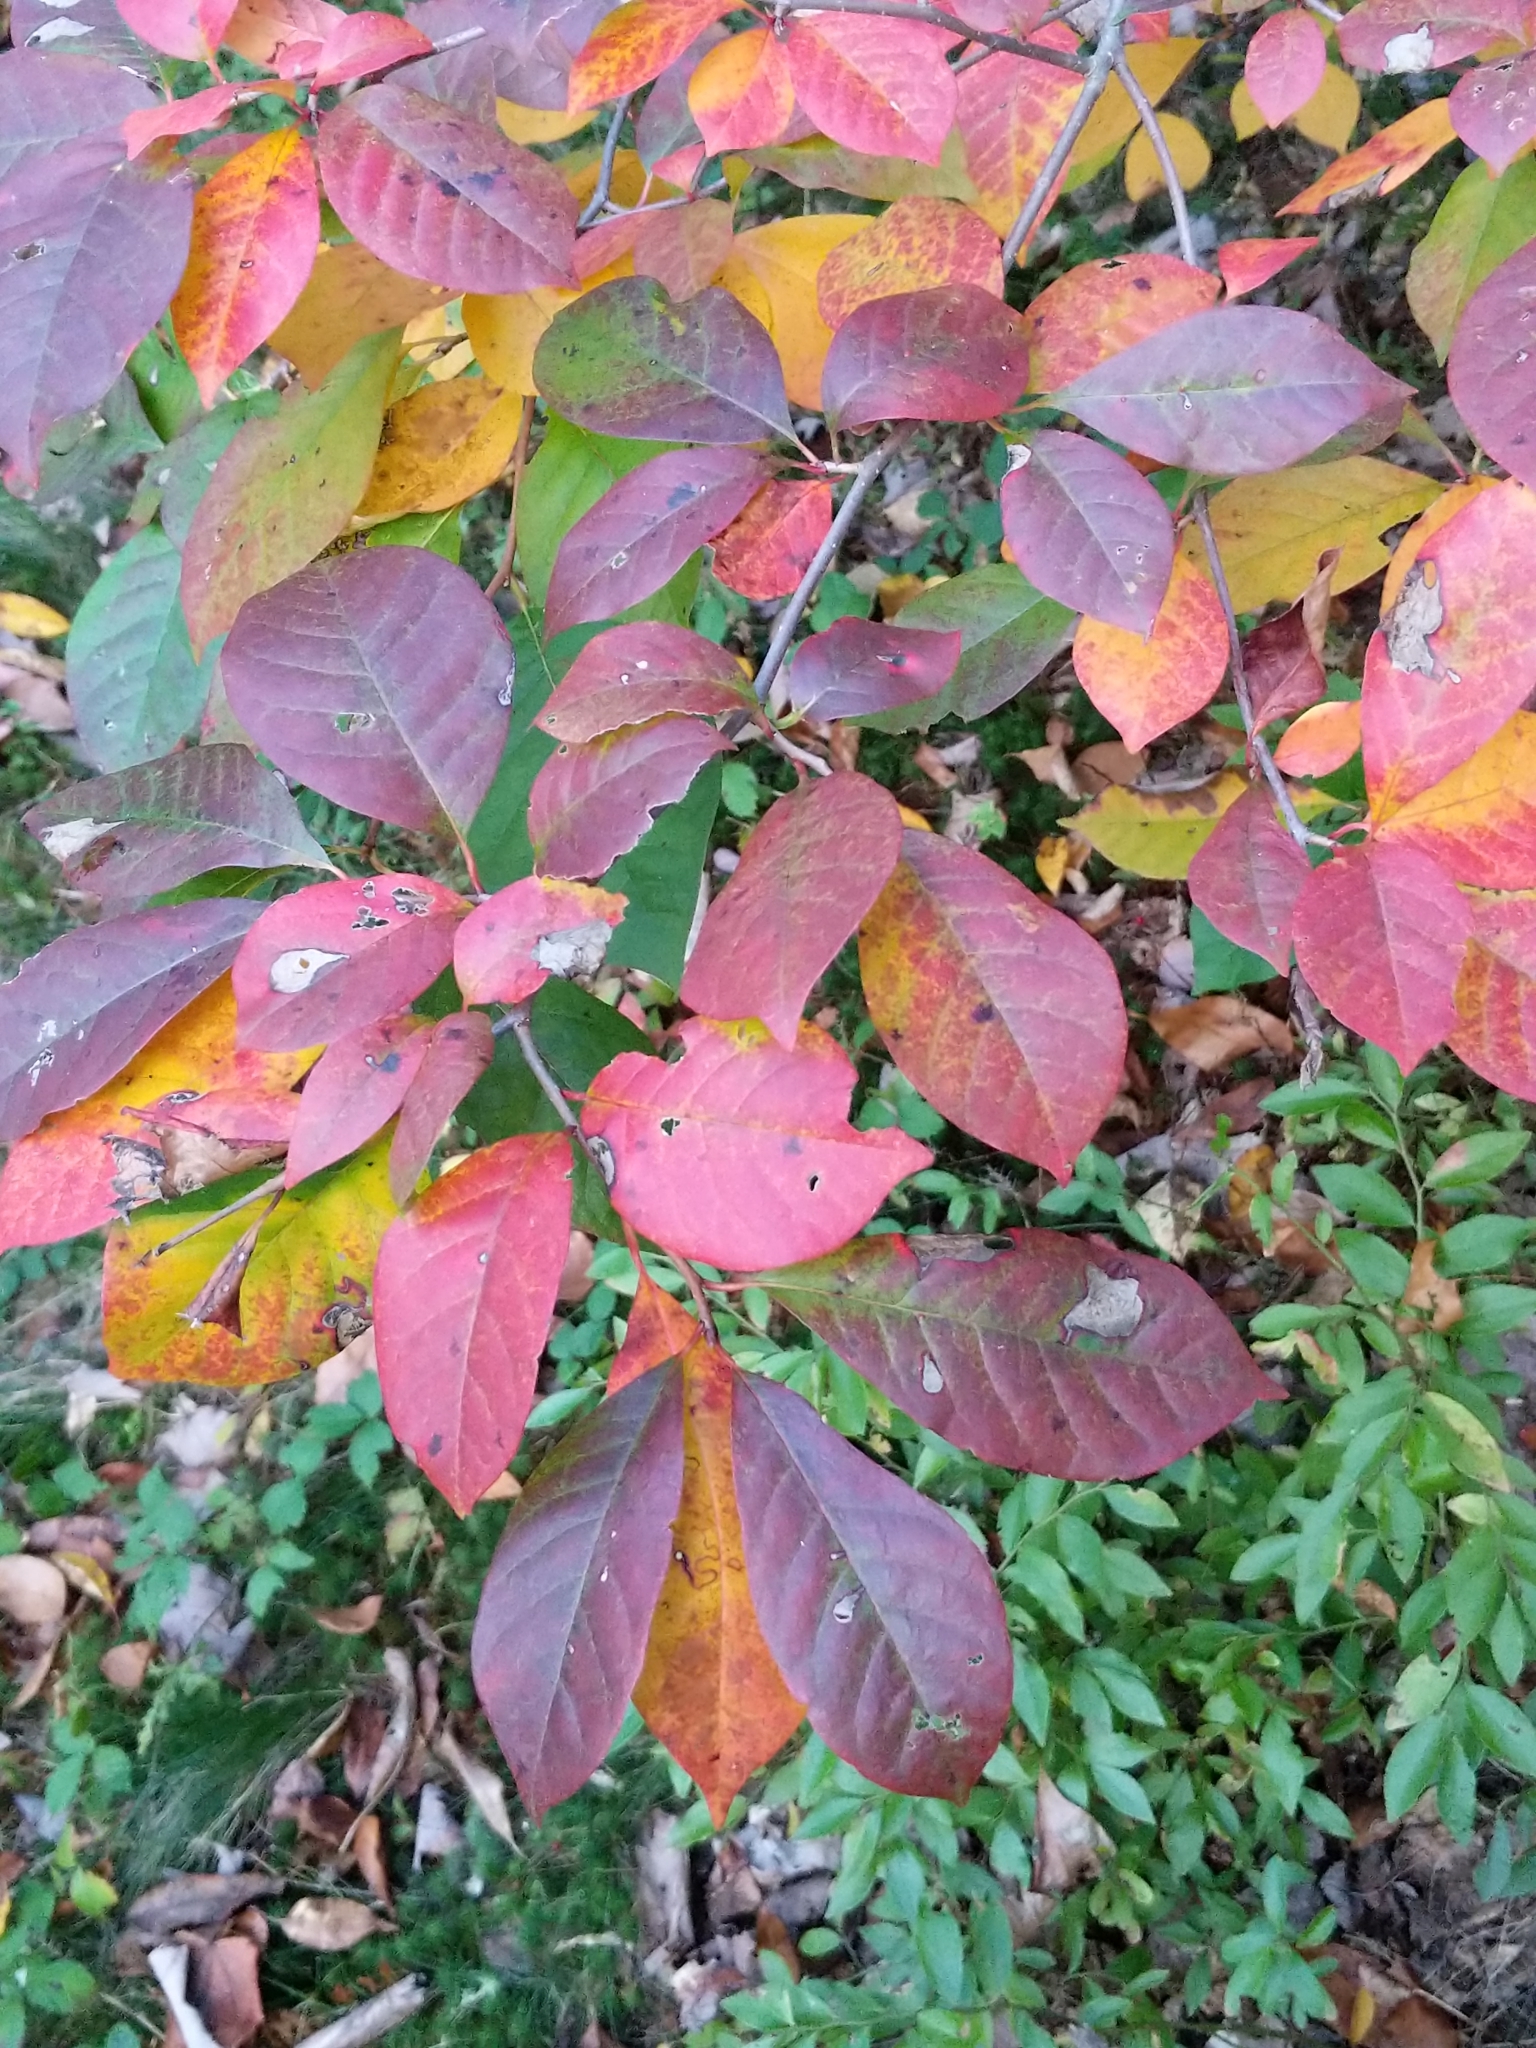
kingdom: Plantae
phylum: Tracheophyta
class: Magnoliopsida
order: Cornales
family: Nyssaceae
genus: Nyssa
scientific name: Nyssa sylvatica
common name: Black tupelo
